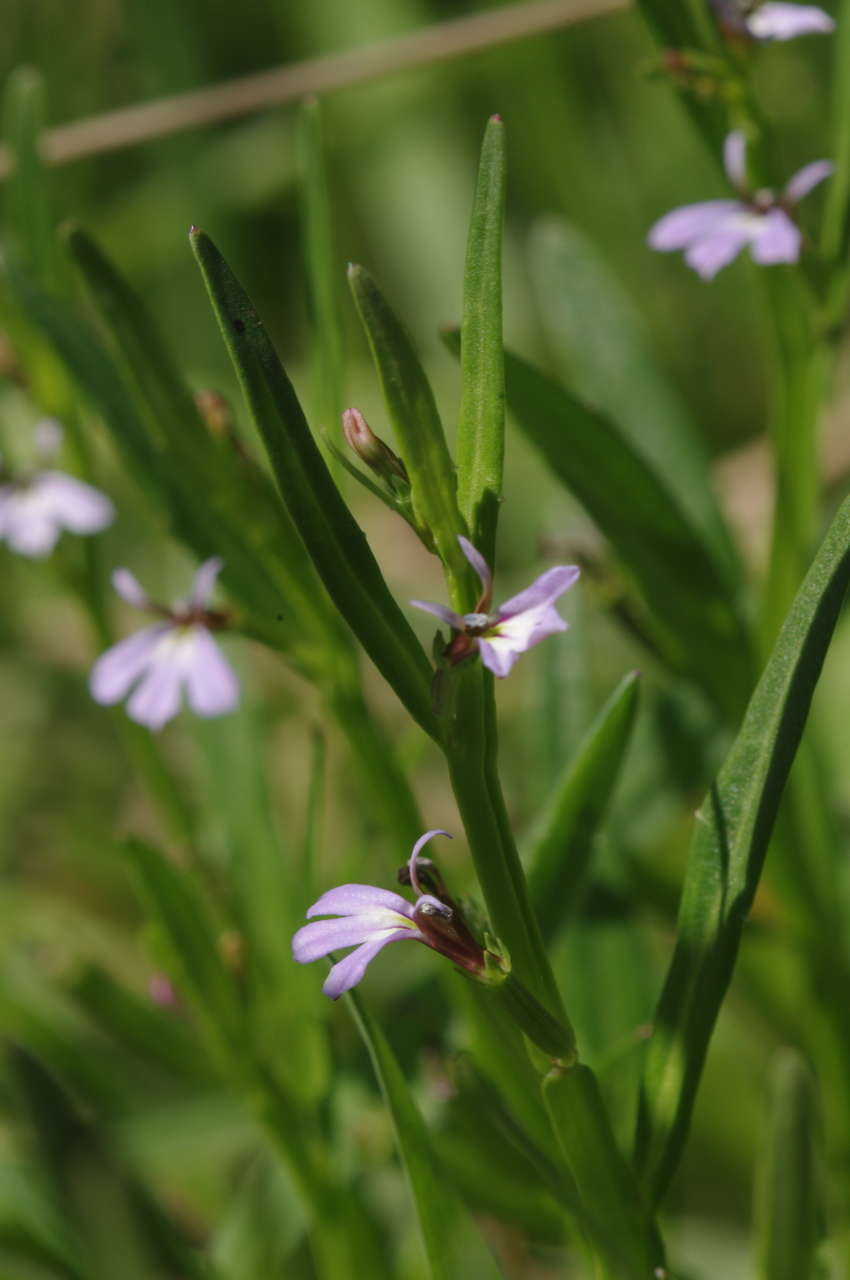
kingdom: Plantae
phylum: Tracheophyta
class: Magnoliopsida
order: Asterales
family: Campanulaceae
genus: Lobelia
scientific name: Lobelia anceps
